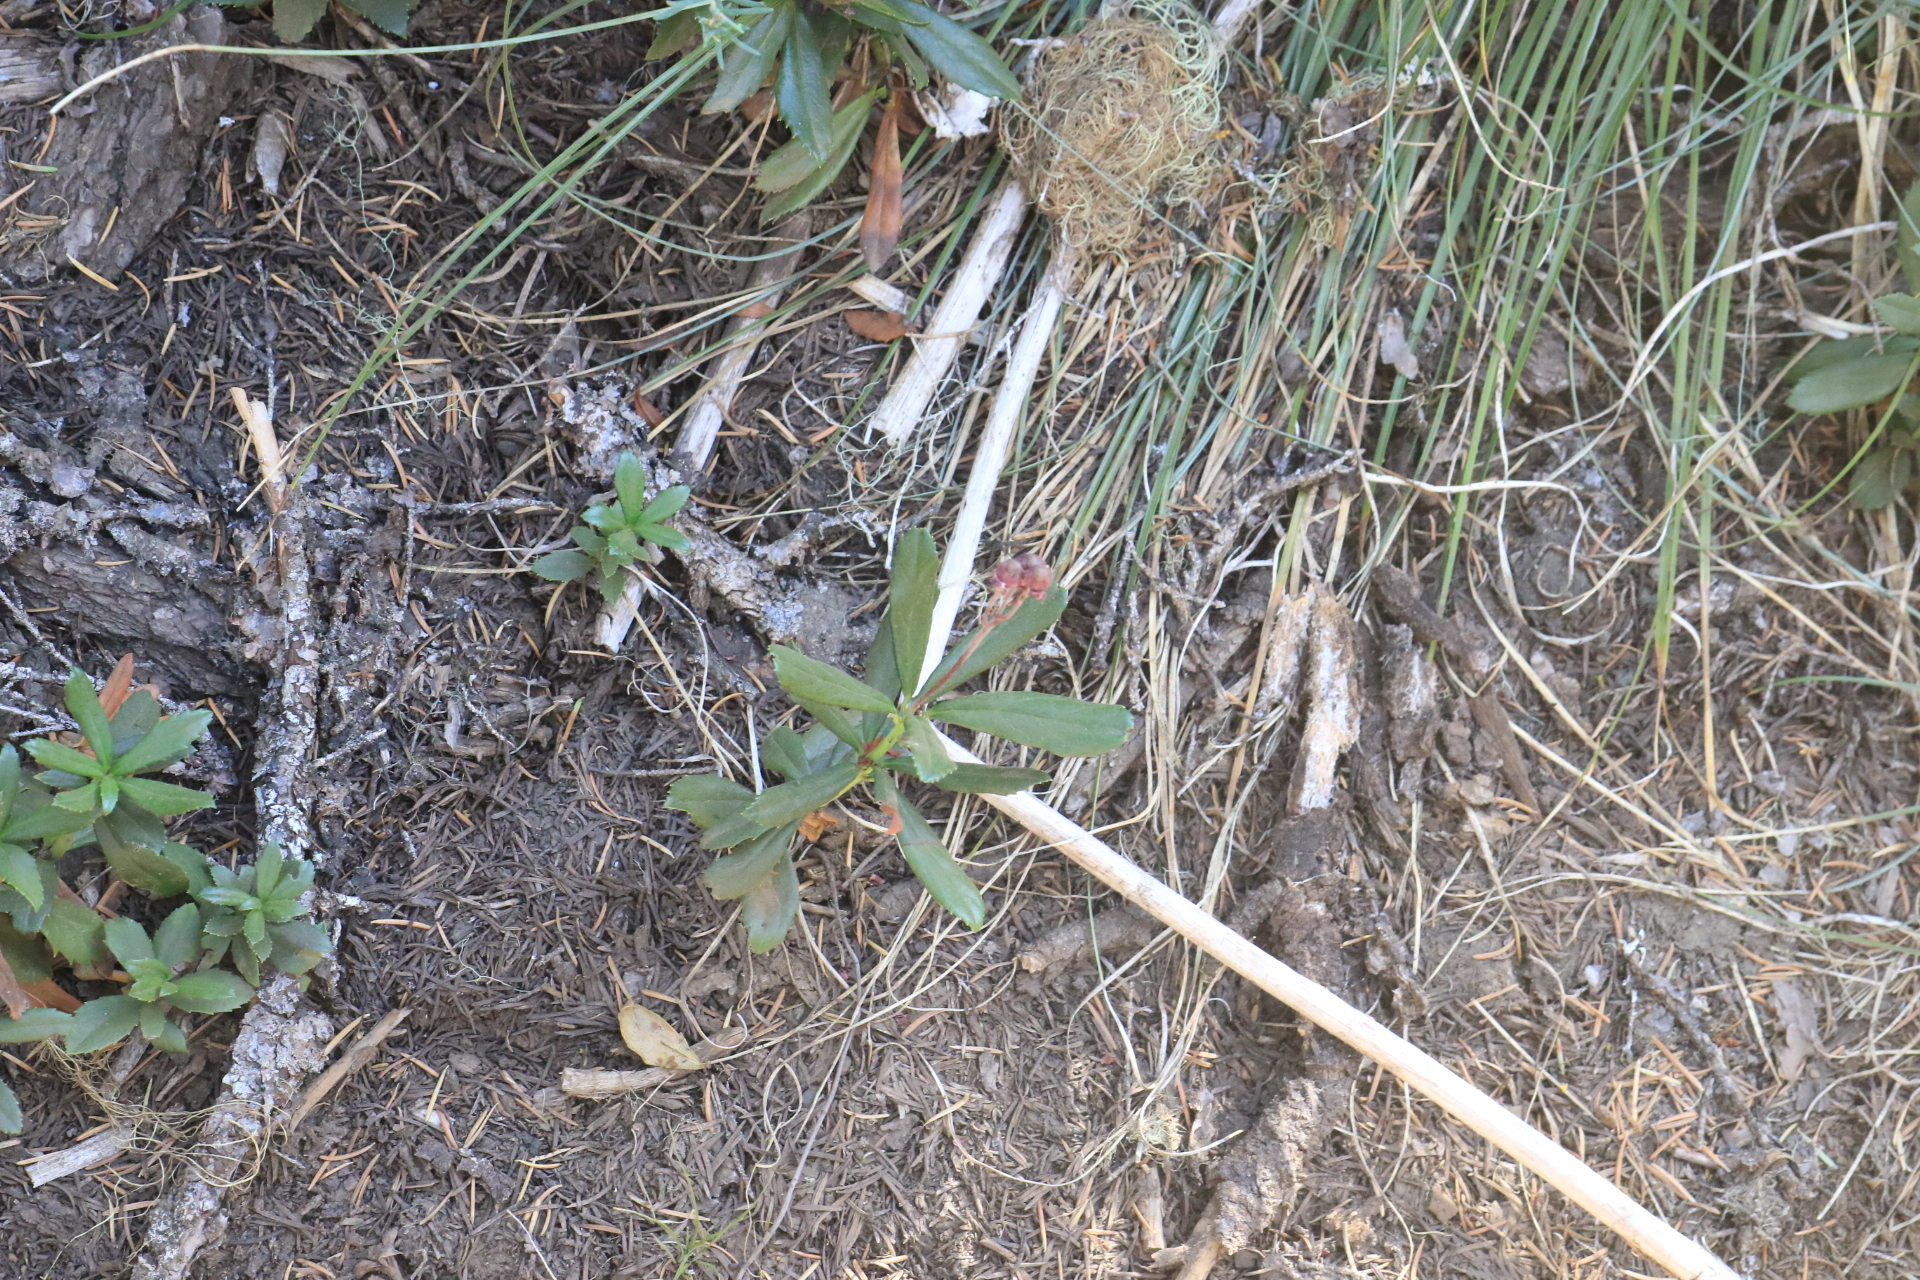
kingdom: Plantae
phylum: Tracheophyta
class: Magnoliopsida
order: Ericales
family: Ericaceae
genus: Chimaphila
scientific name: Chimaphila umbellata
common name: Pipsissewa
